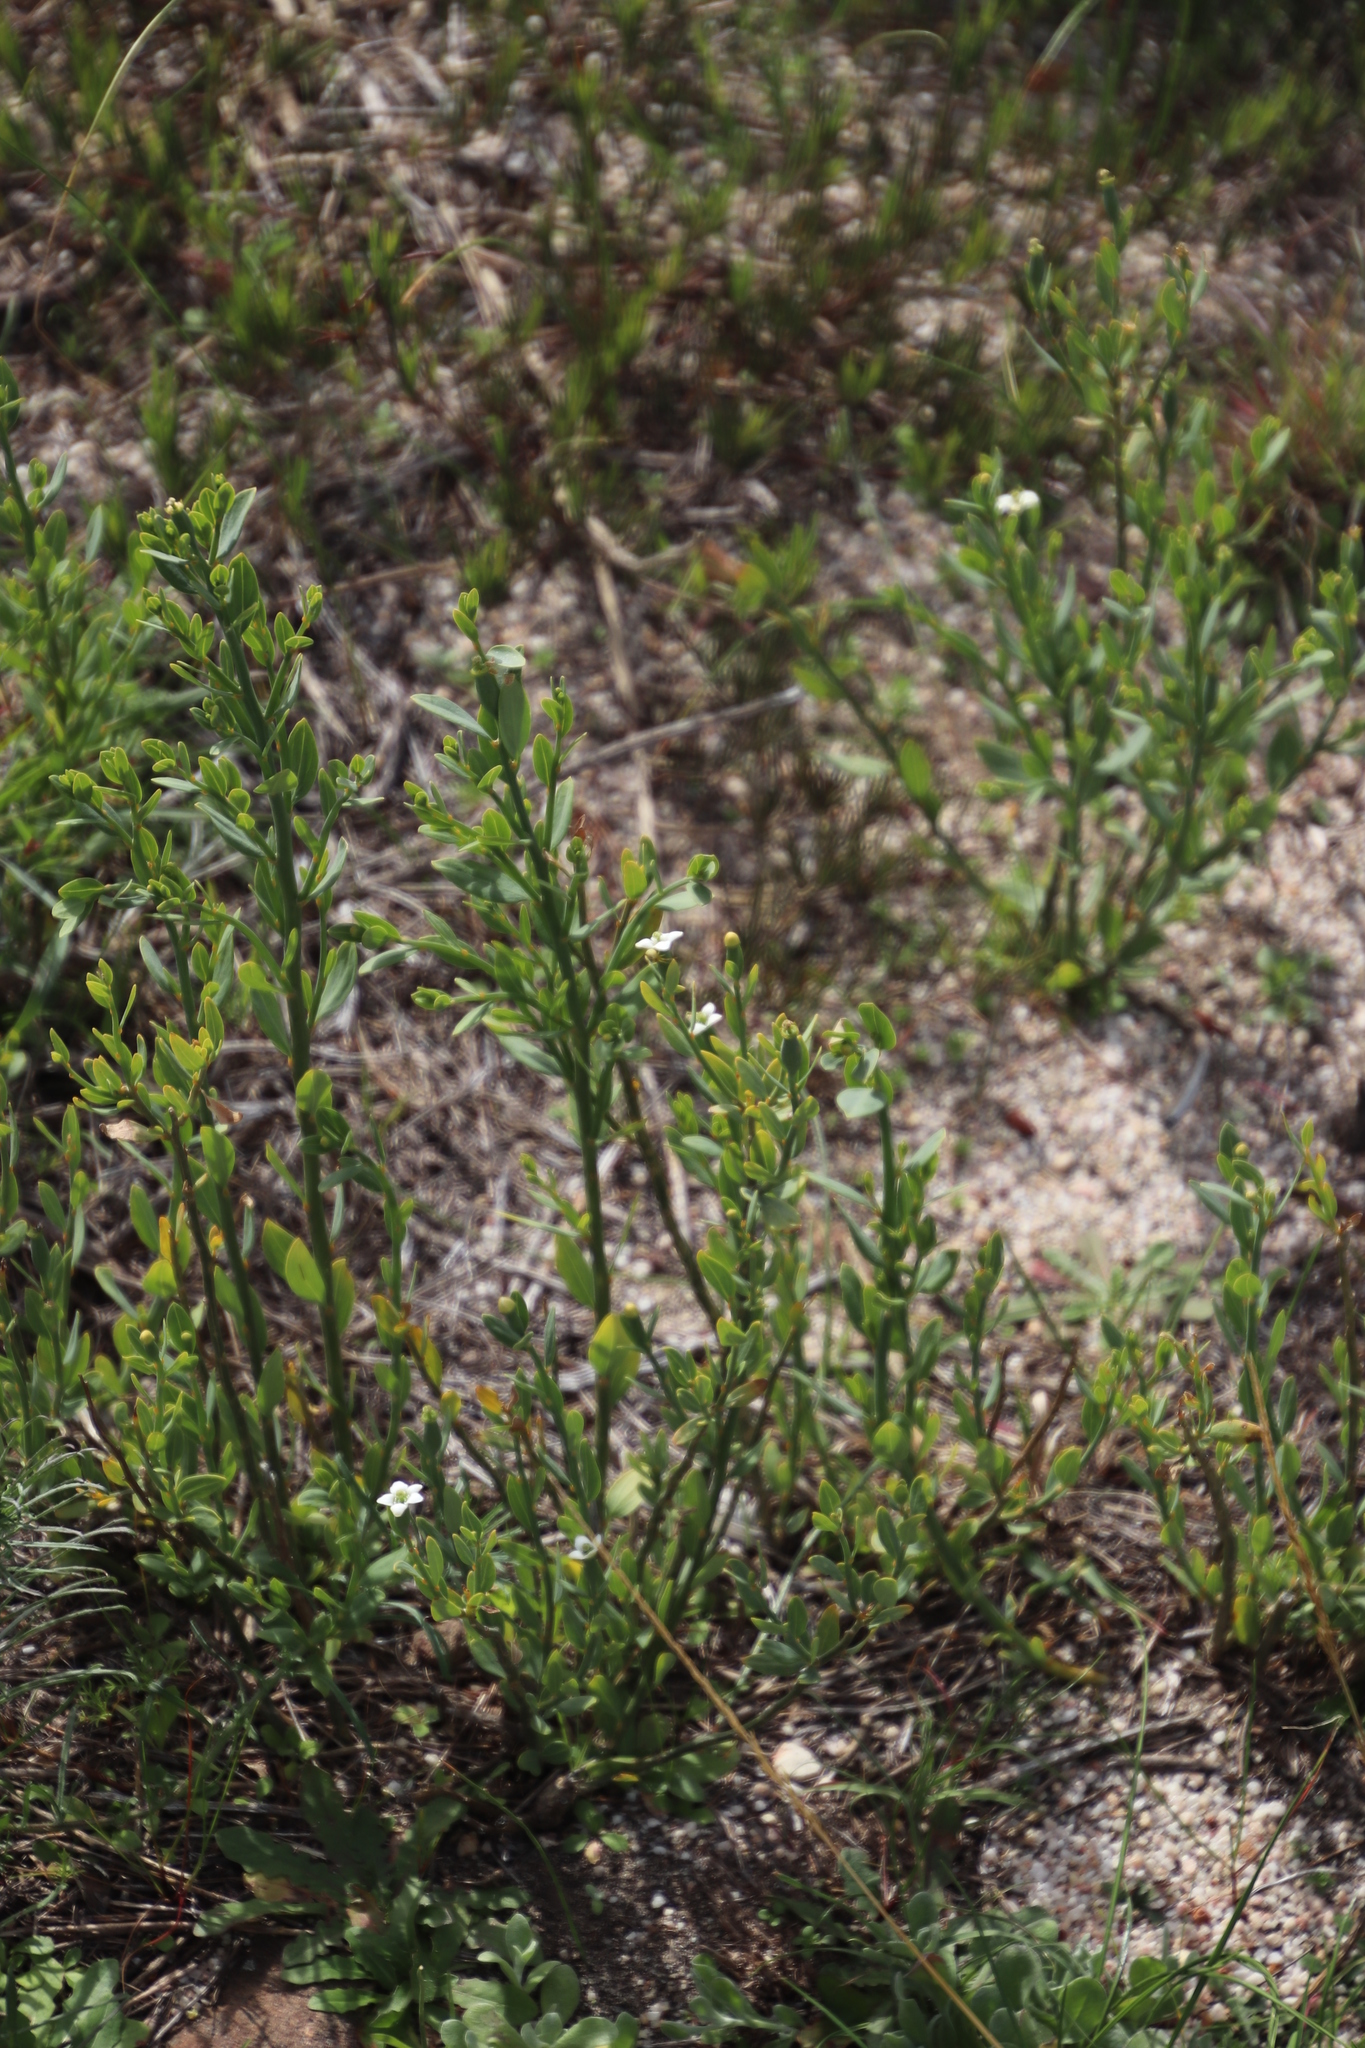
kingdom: Plantae
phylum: Tracheophyta
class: Magnoliopsida
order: Solanales
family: Montiniaceae
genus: Montinia
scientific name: Montinia caryophyllacea
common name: Wild clove-bush
